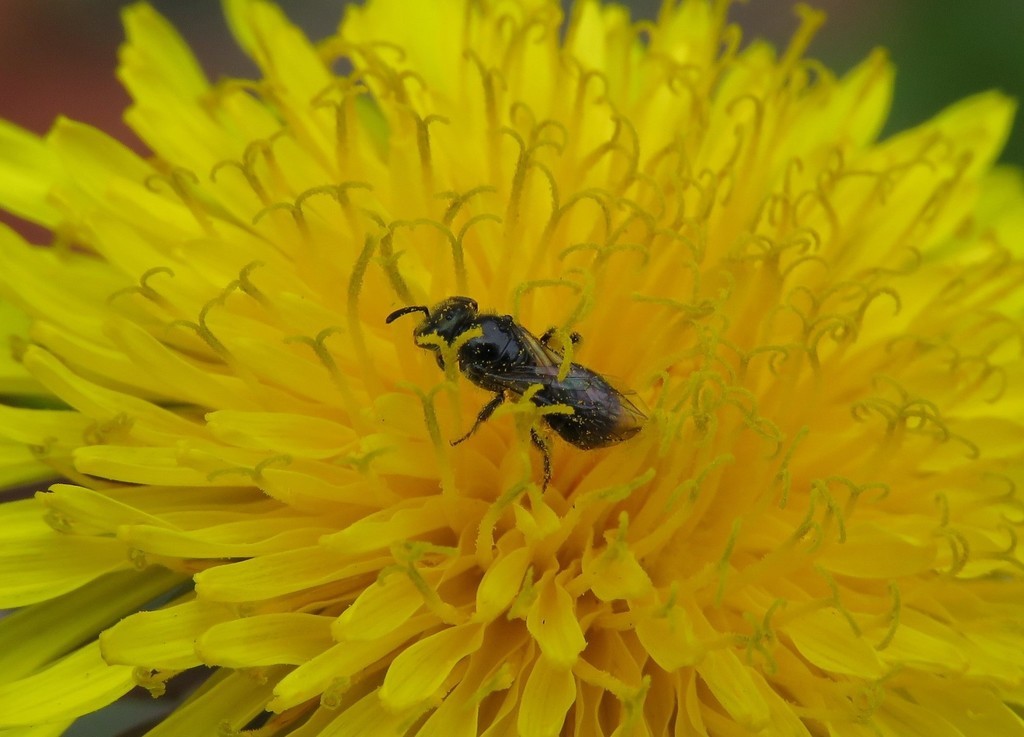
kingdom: Plantae
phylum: Tracheophyta
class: Magnoliopsida
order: Asterales
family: Asteraceae
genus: Taraxacum
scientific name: Taraxacum officinale
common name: Common dandelion
